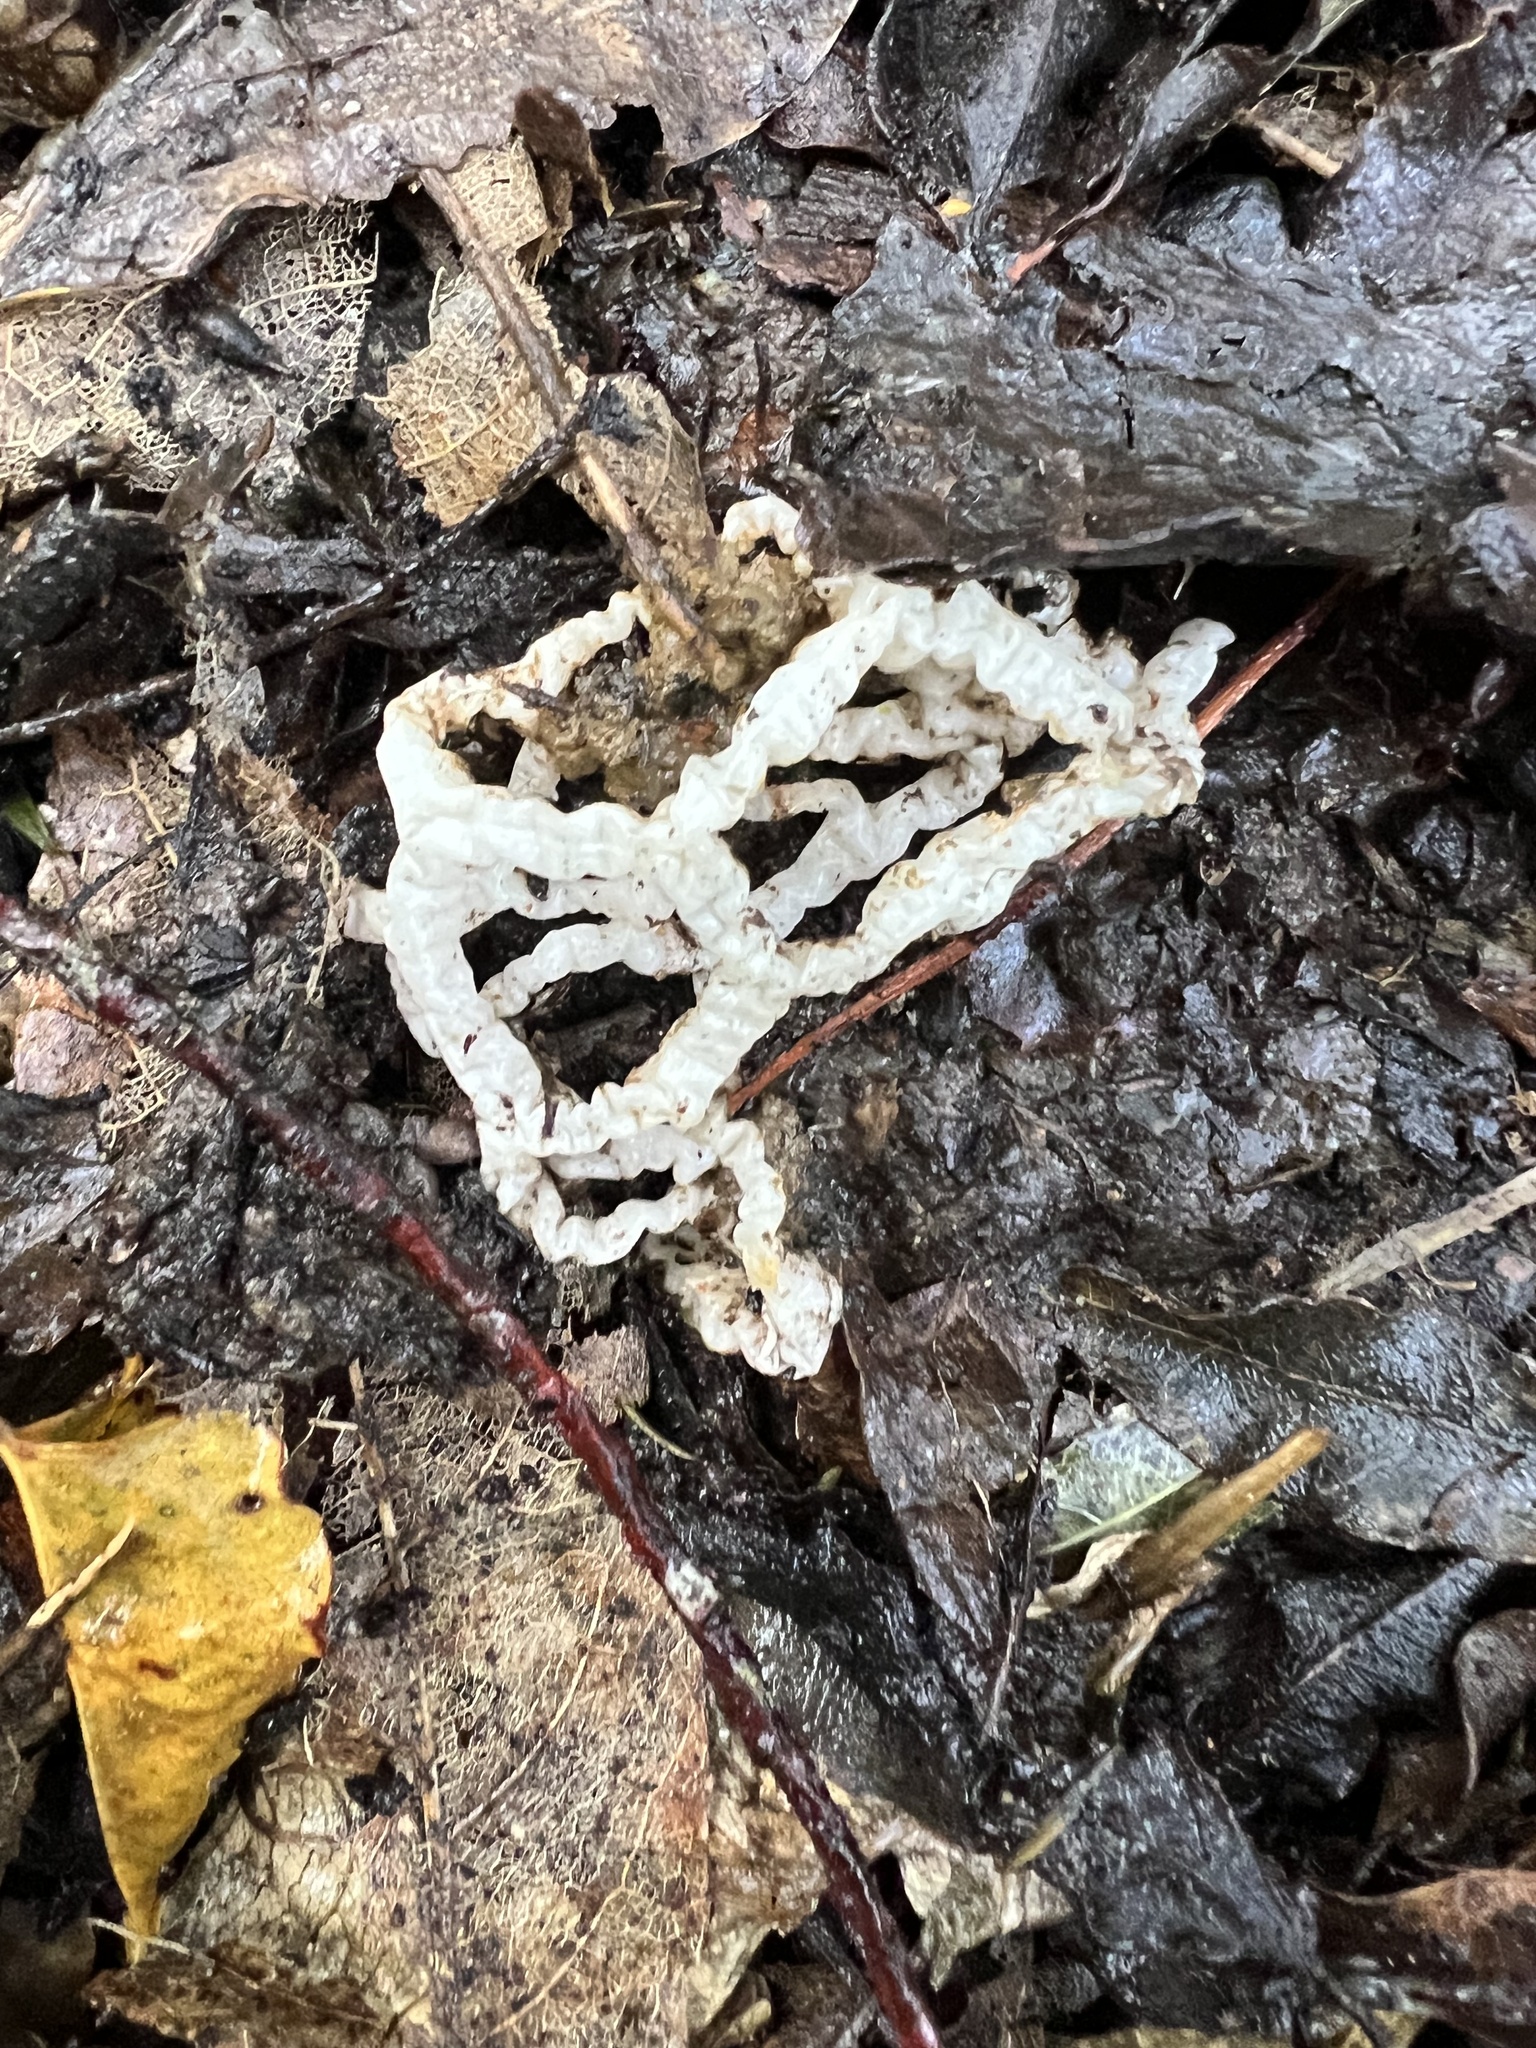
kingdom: Fungi
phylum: Basidiomycota
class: Agaricomycetes
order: Phallales
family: Phallaceae
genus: Ileodictyon
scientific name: Ileodictyon cibarium
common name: Basket fungus
